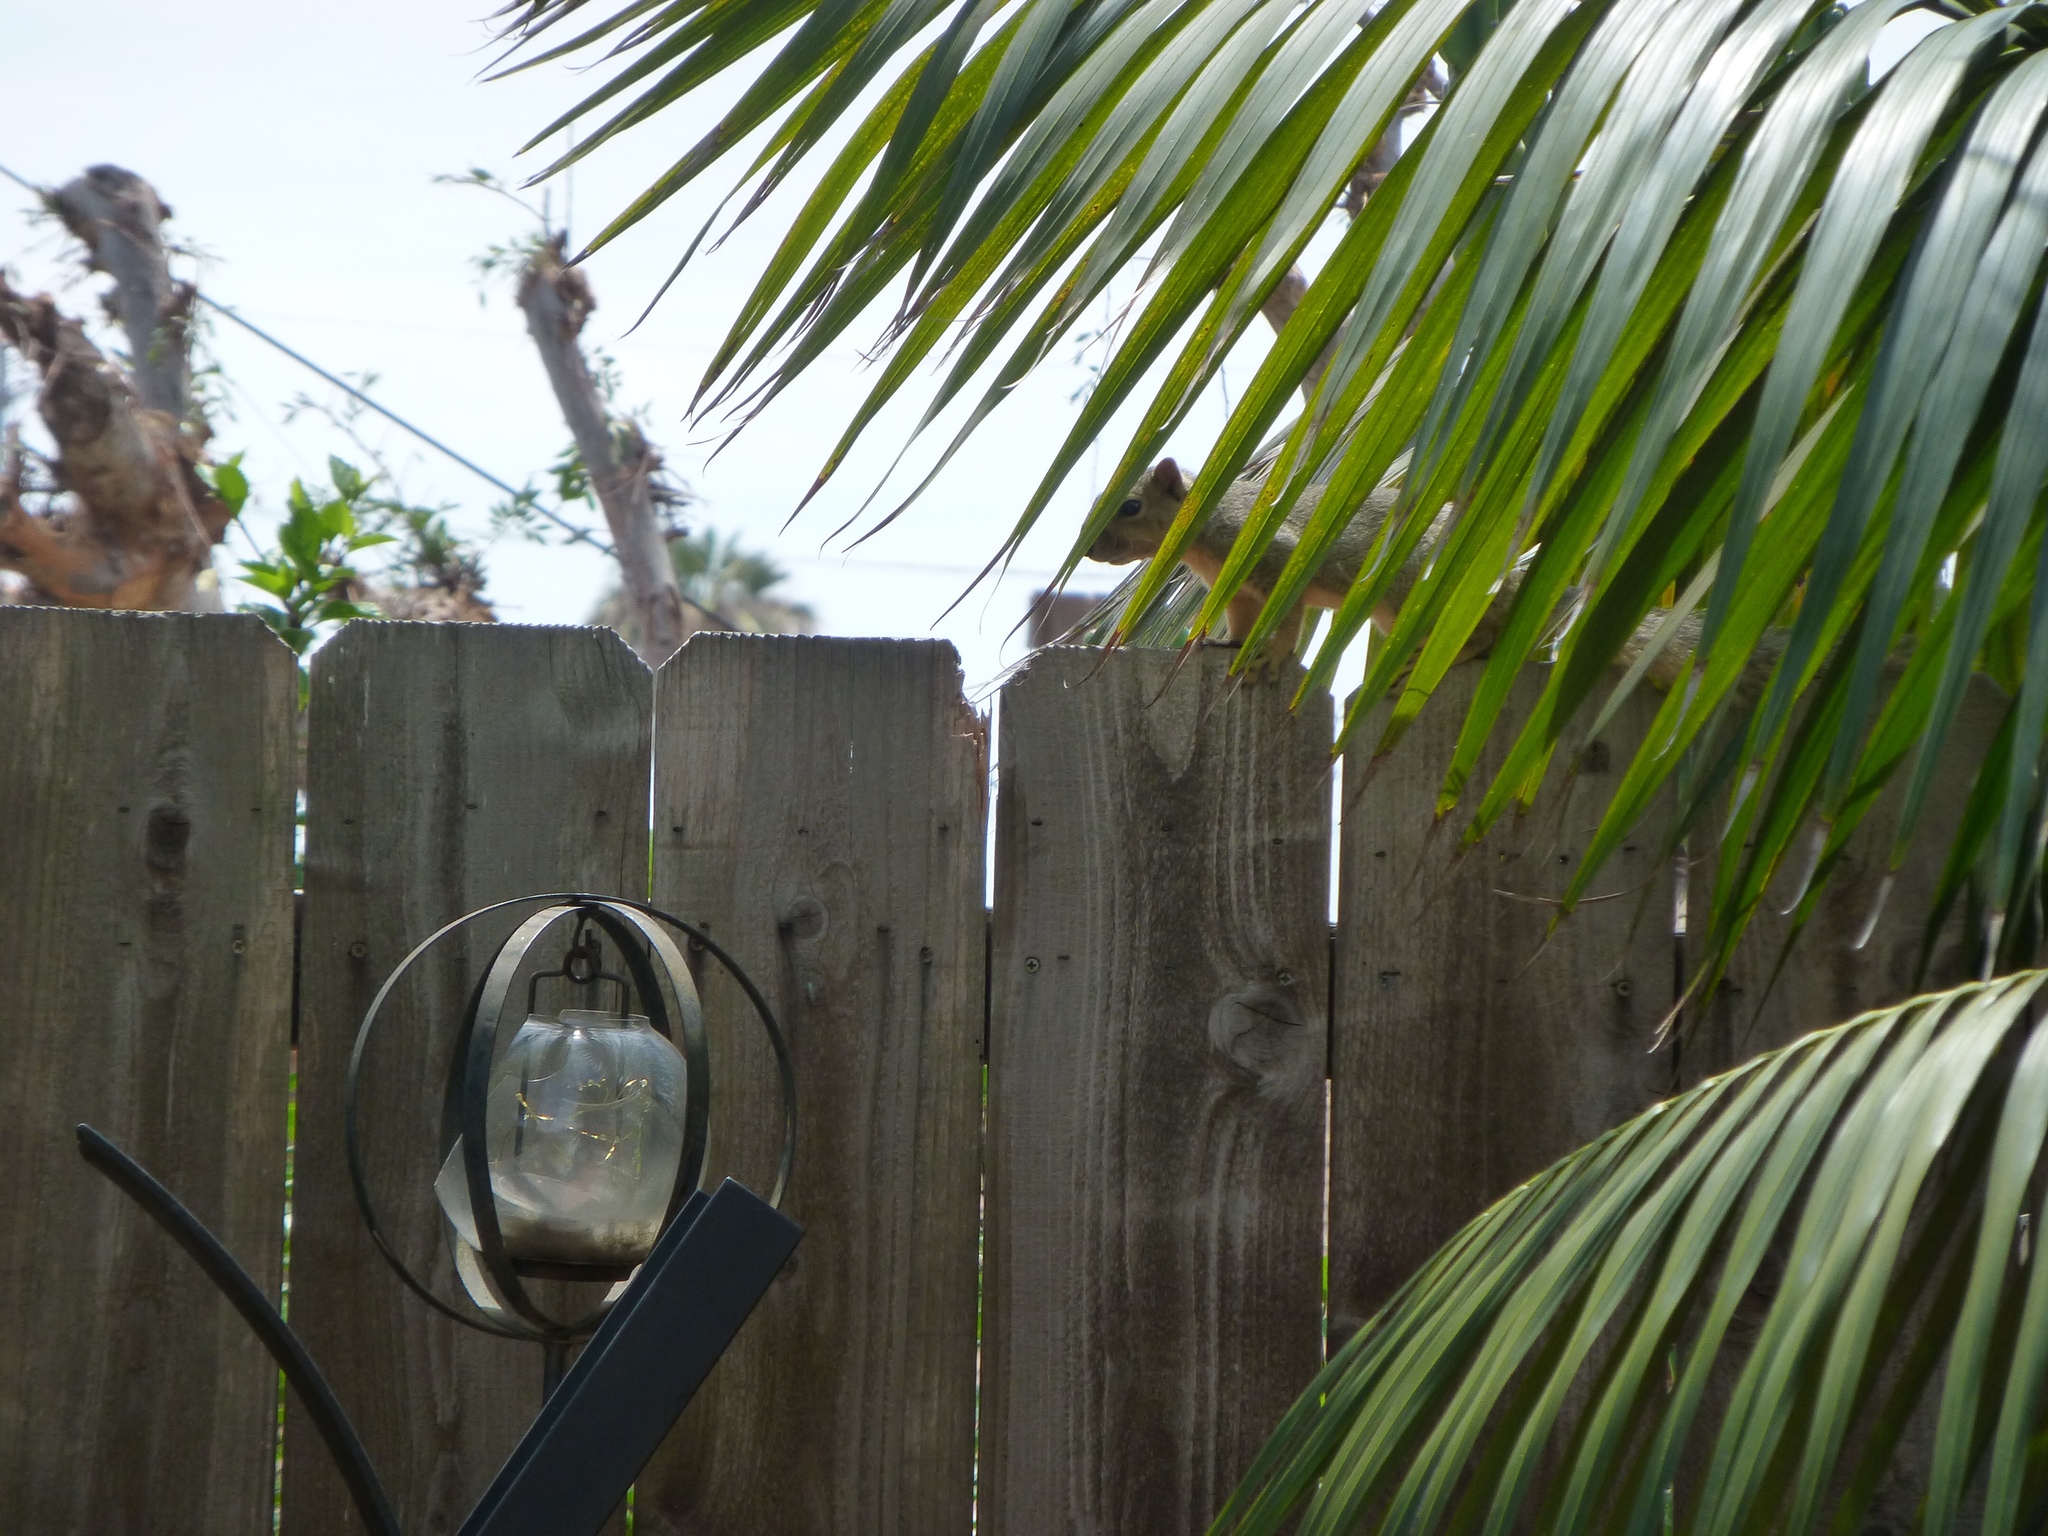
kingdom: Animalia
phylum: Chordata
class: Mammalia
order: Rodentia
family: Sciuridae
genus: Sciurus
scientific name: Sciurus niger
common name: Fox squirrel
